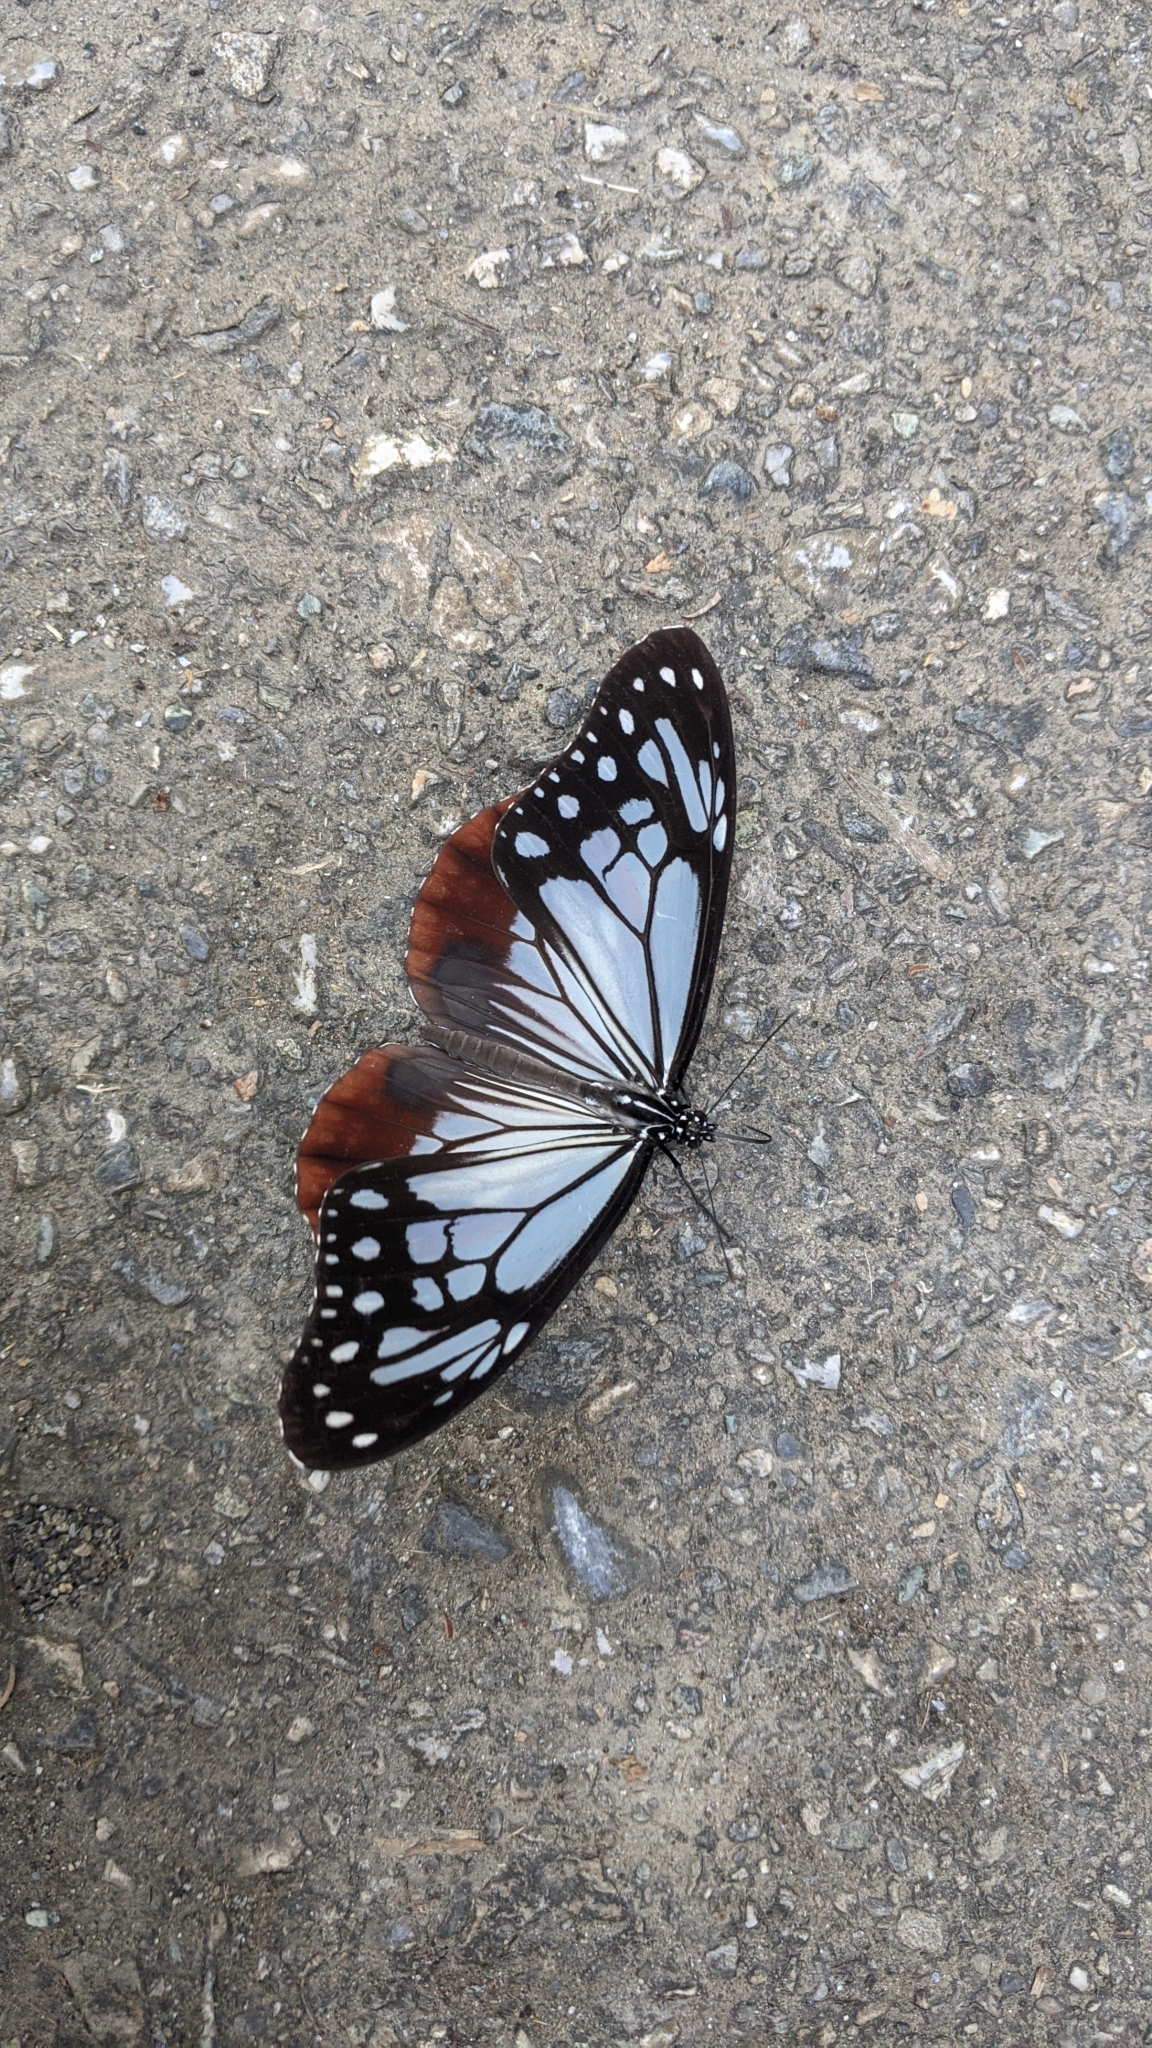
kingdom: Animalia
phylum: Arthropoda
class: Insecta
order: Lepidoptera
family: Nymphalidae
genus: Parantica
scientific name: Parantica sita
